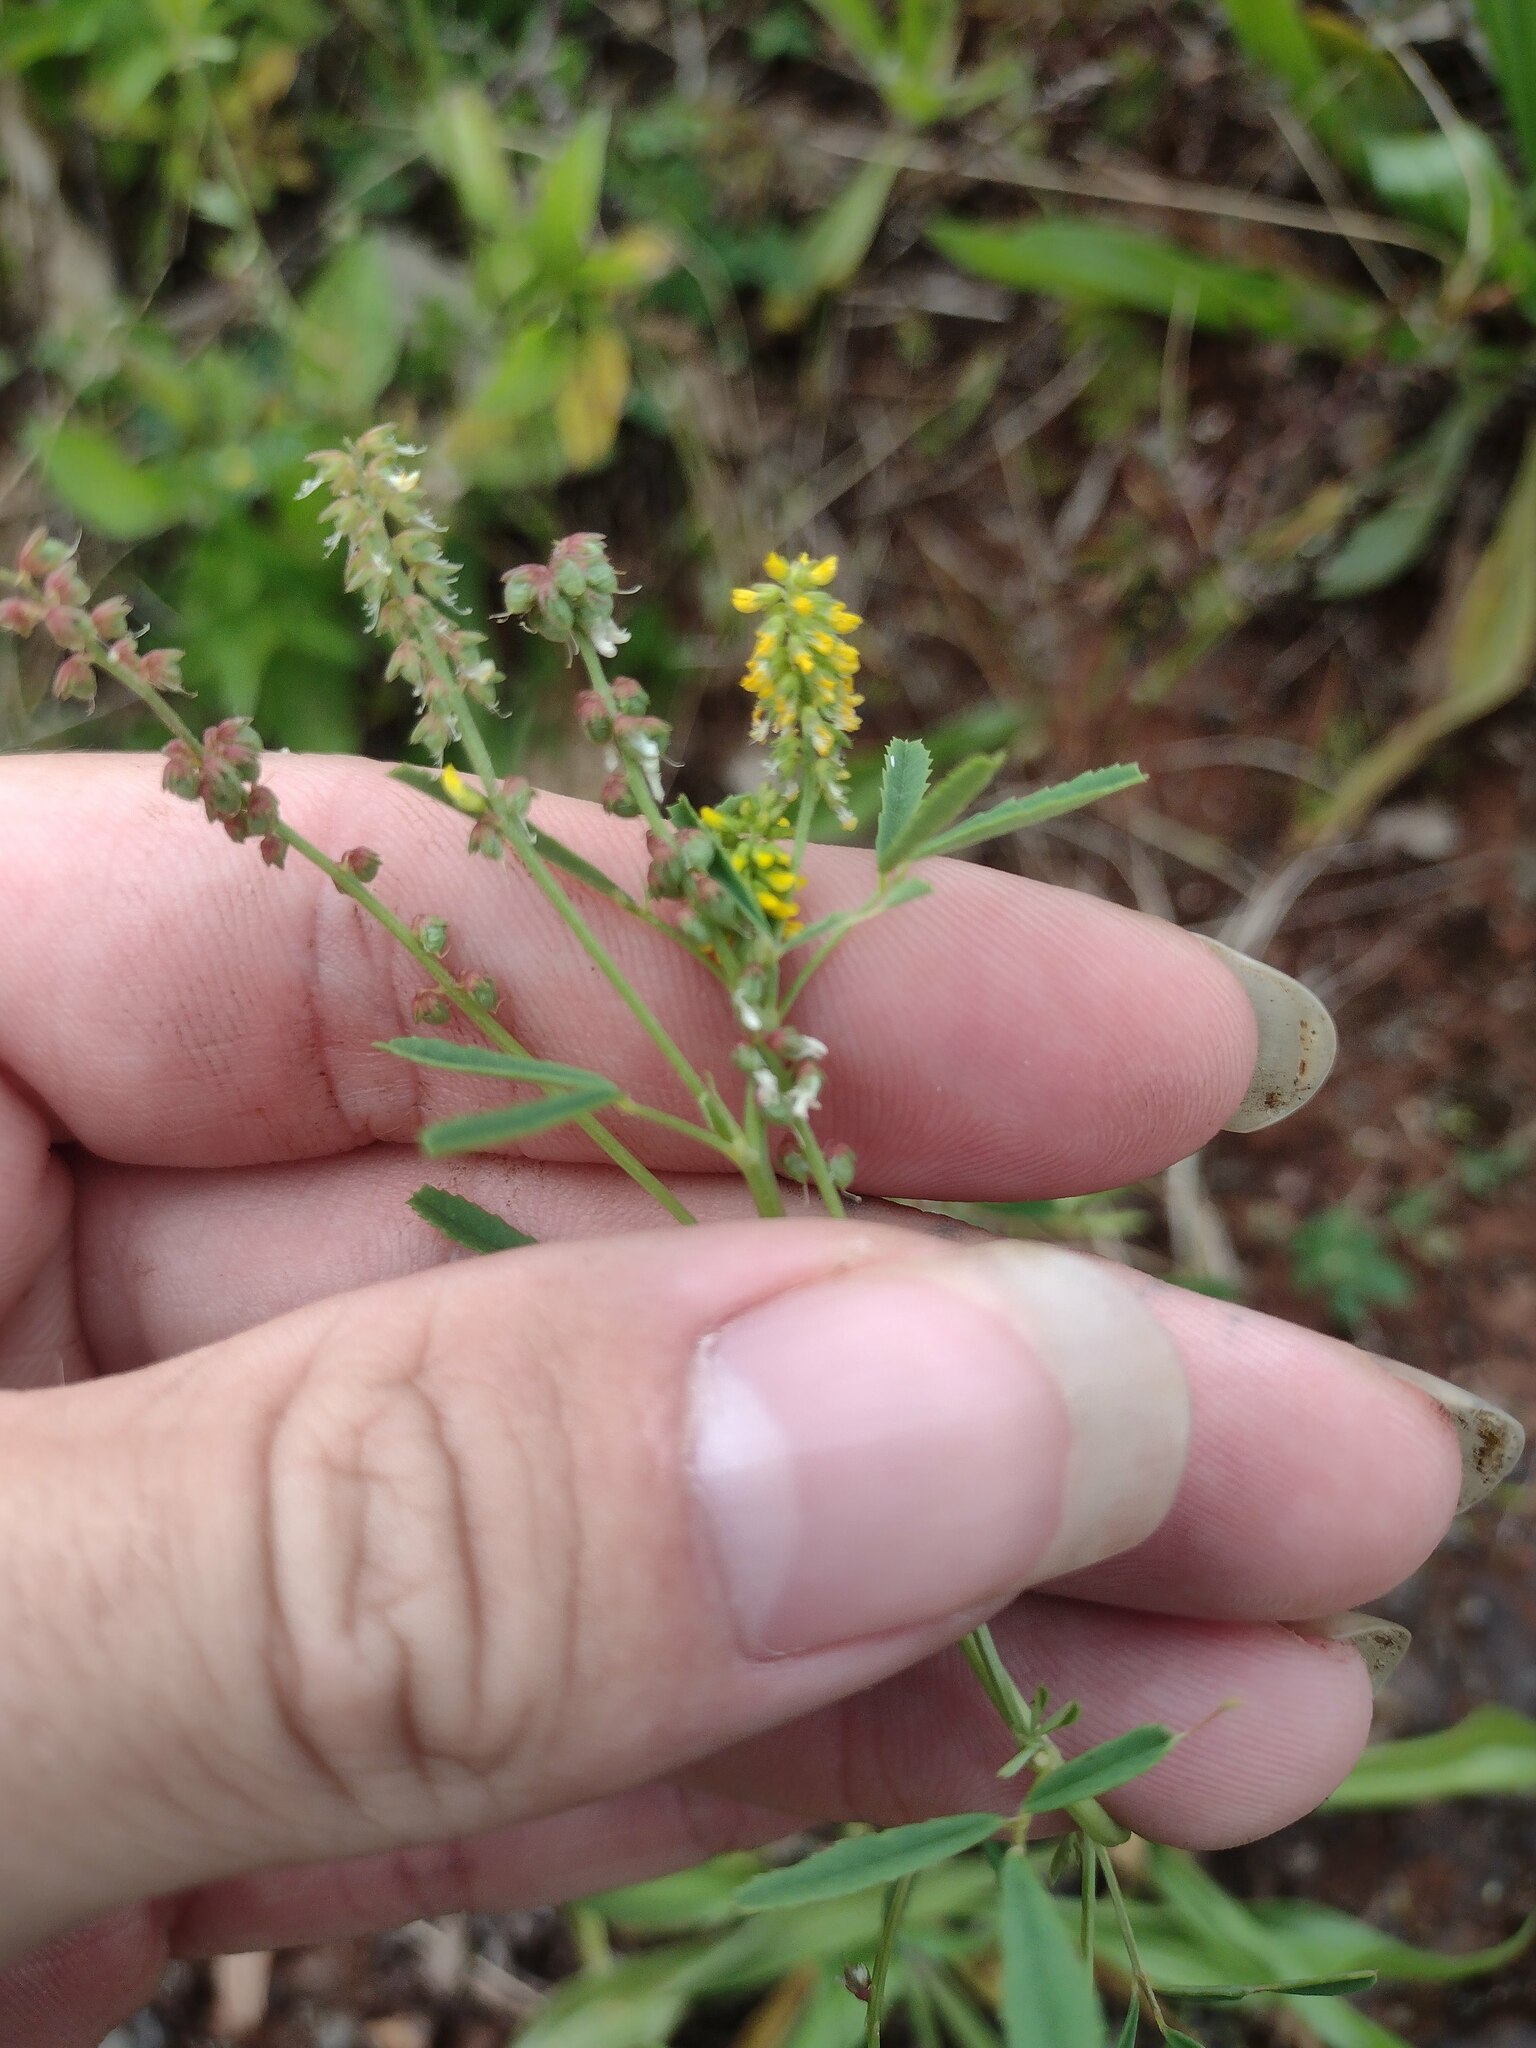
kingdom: Plantae
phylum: Tracheophyta
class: Magnoliopsida
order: Fabales
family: Fabaceae
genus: Melilotus
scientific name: Melilotus indicus
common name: Small melilot
